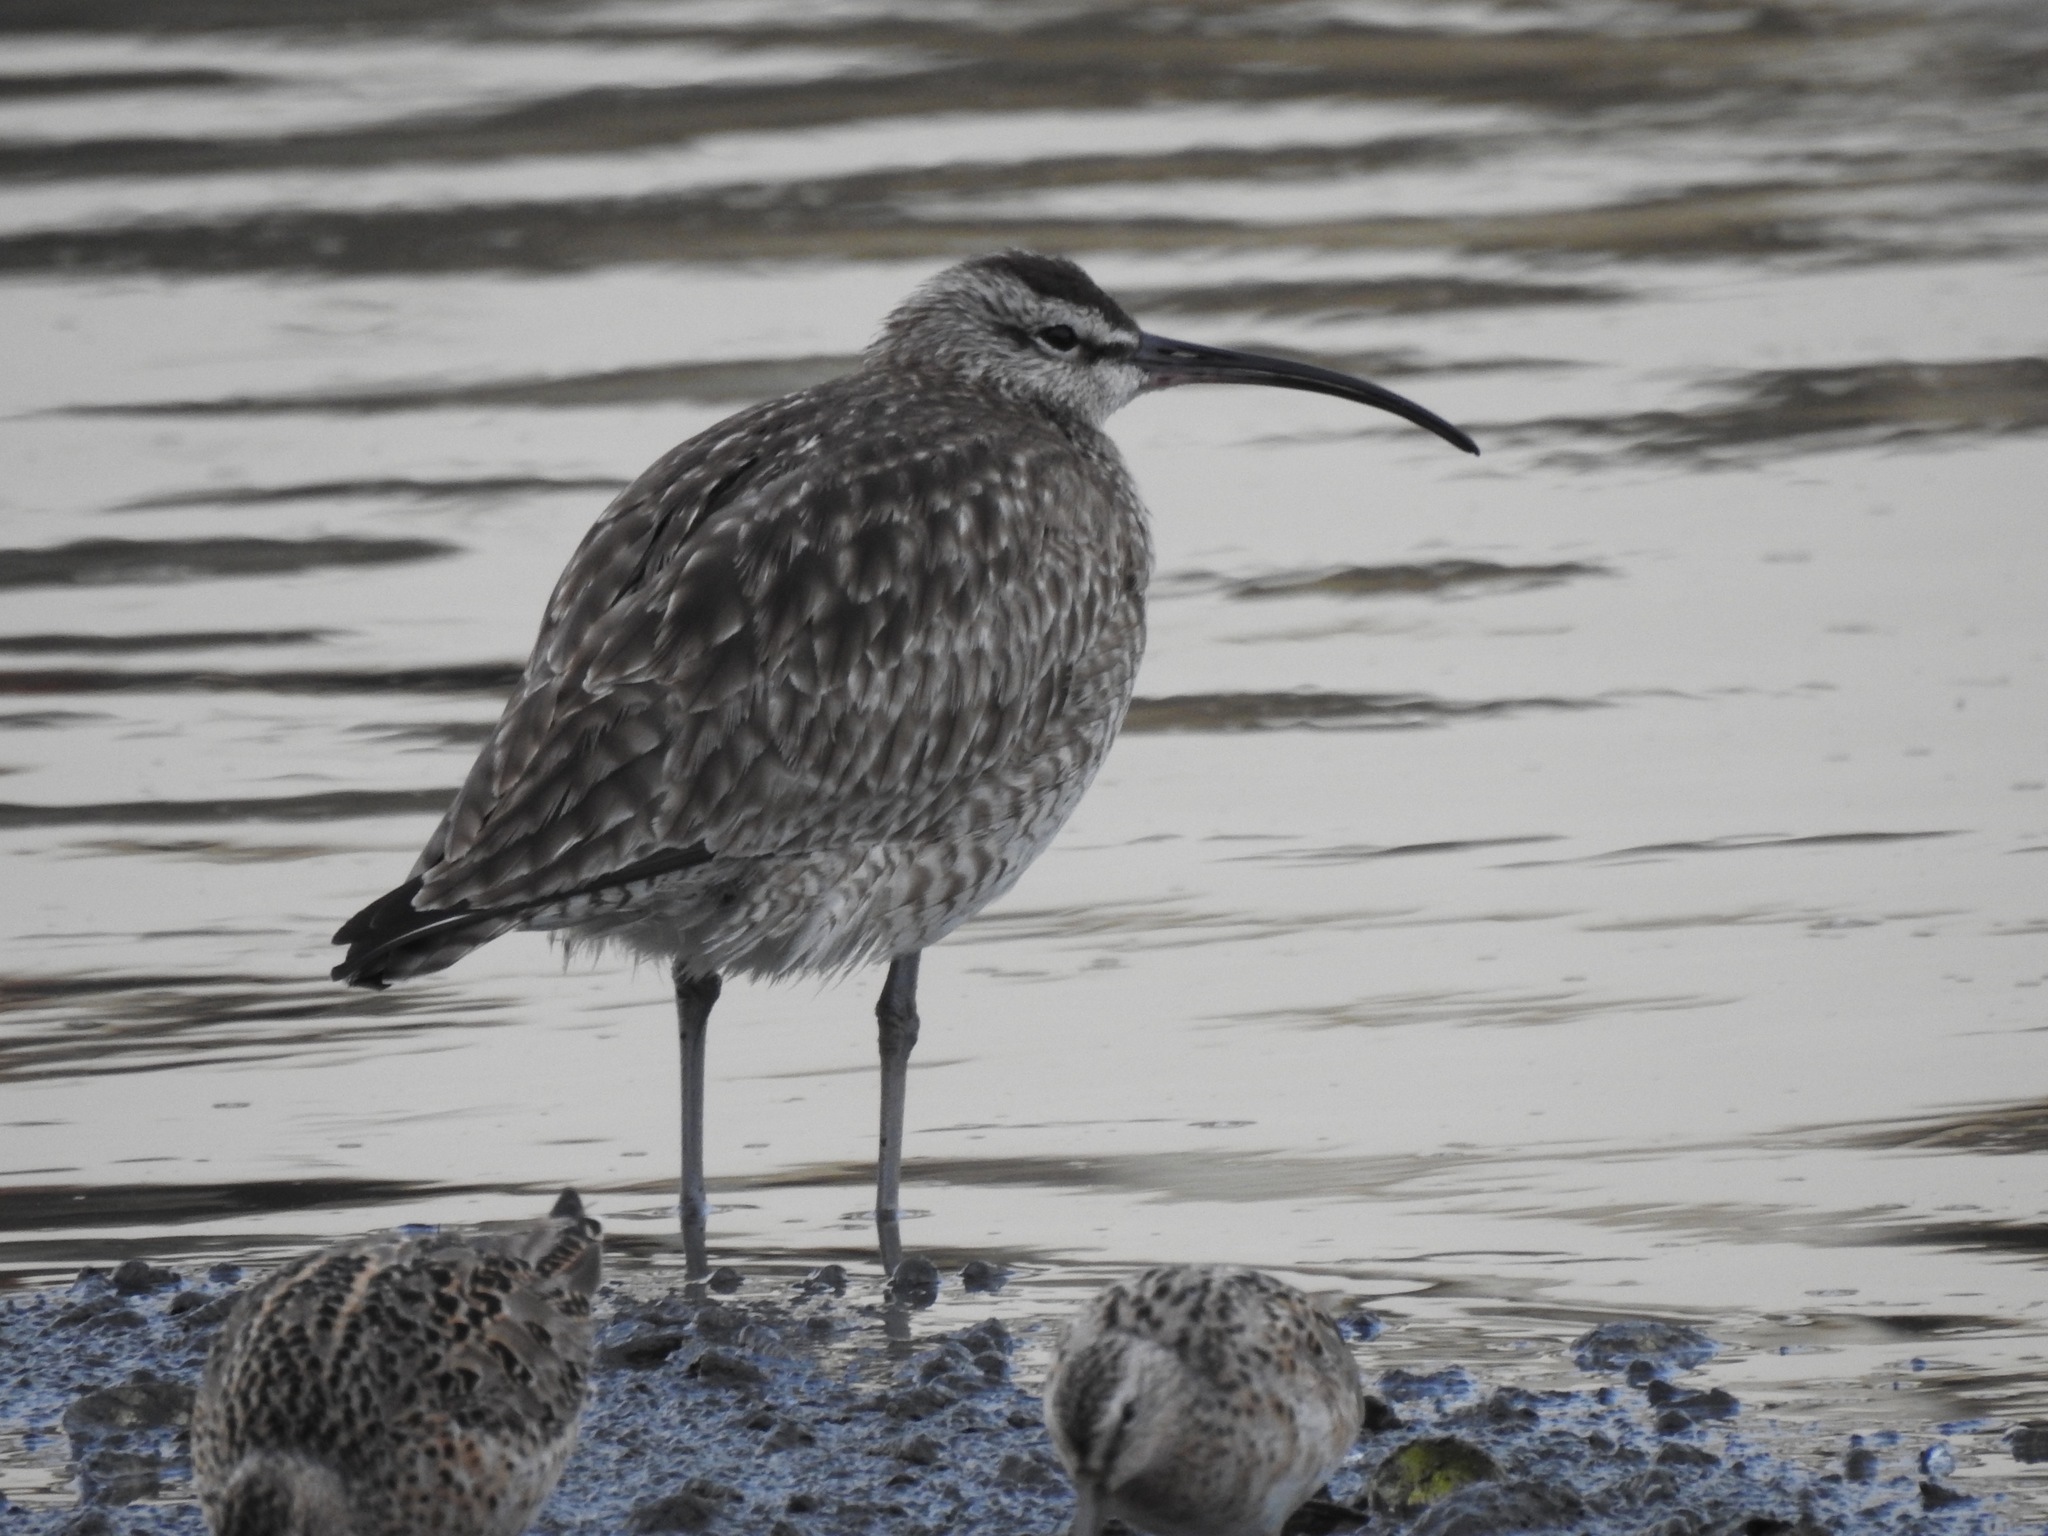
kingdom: Animalia
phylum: Chordata
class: Aves
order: Charadriiformes
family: Scolopacidae
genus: Numenius
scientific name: Numenius phaeopus
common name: Whimbrel
